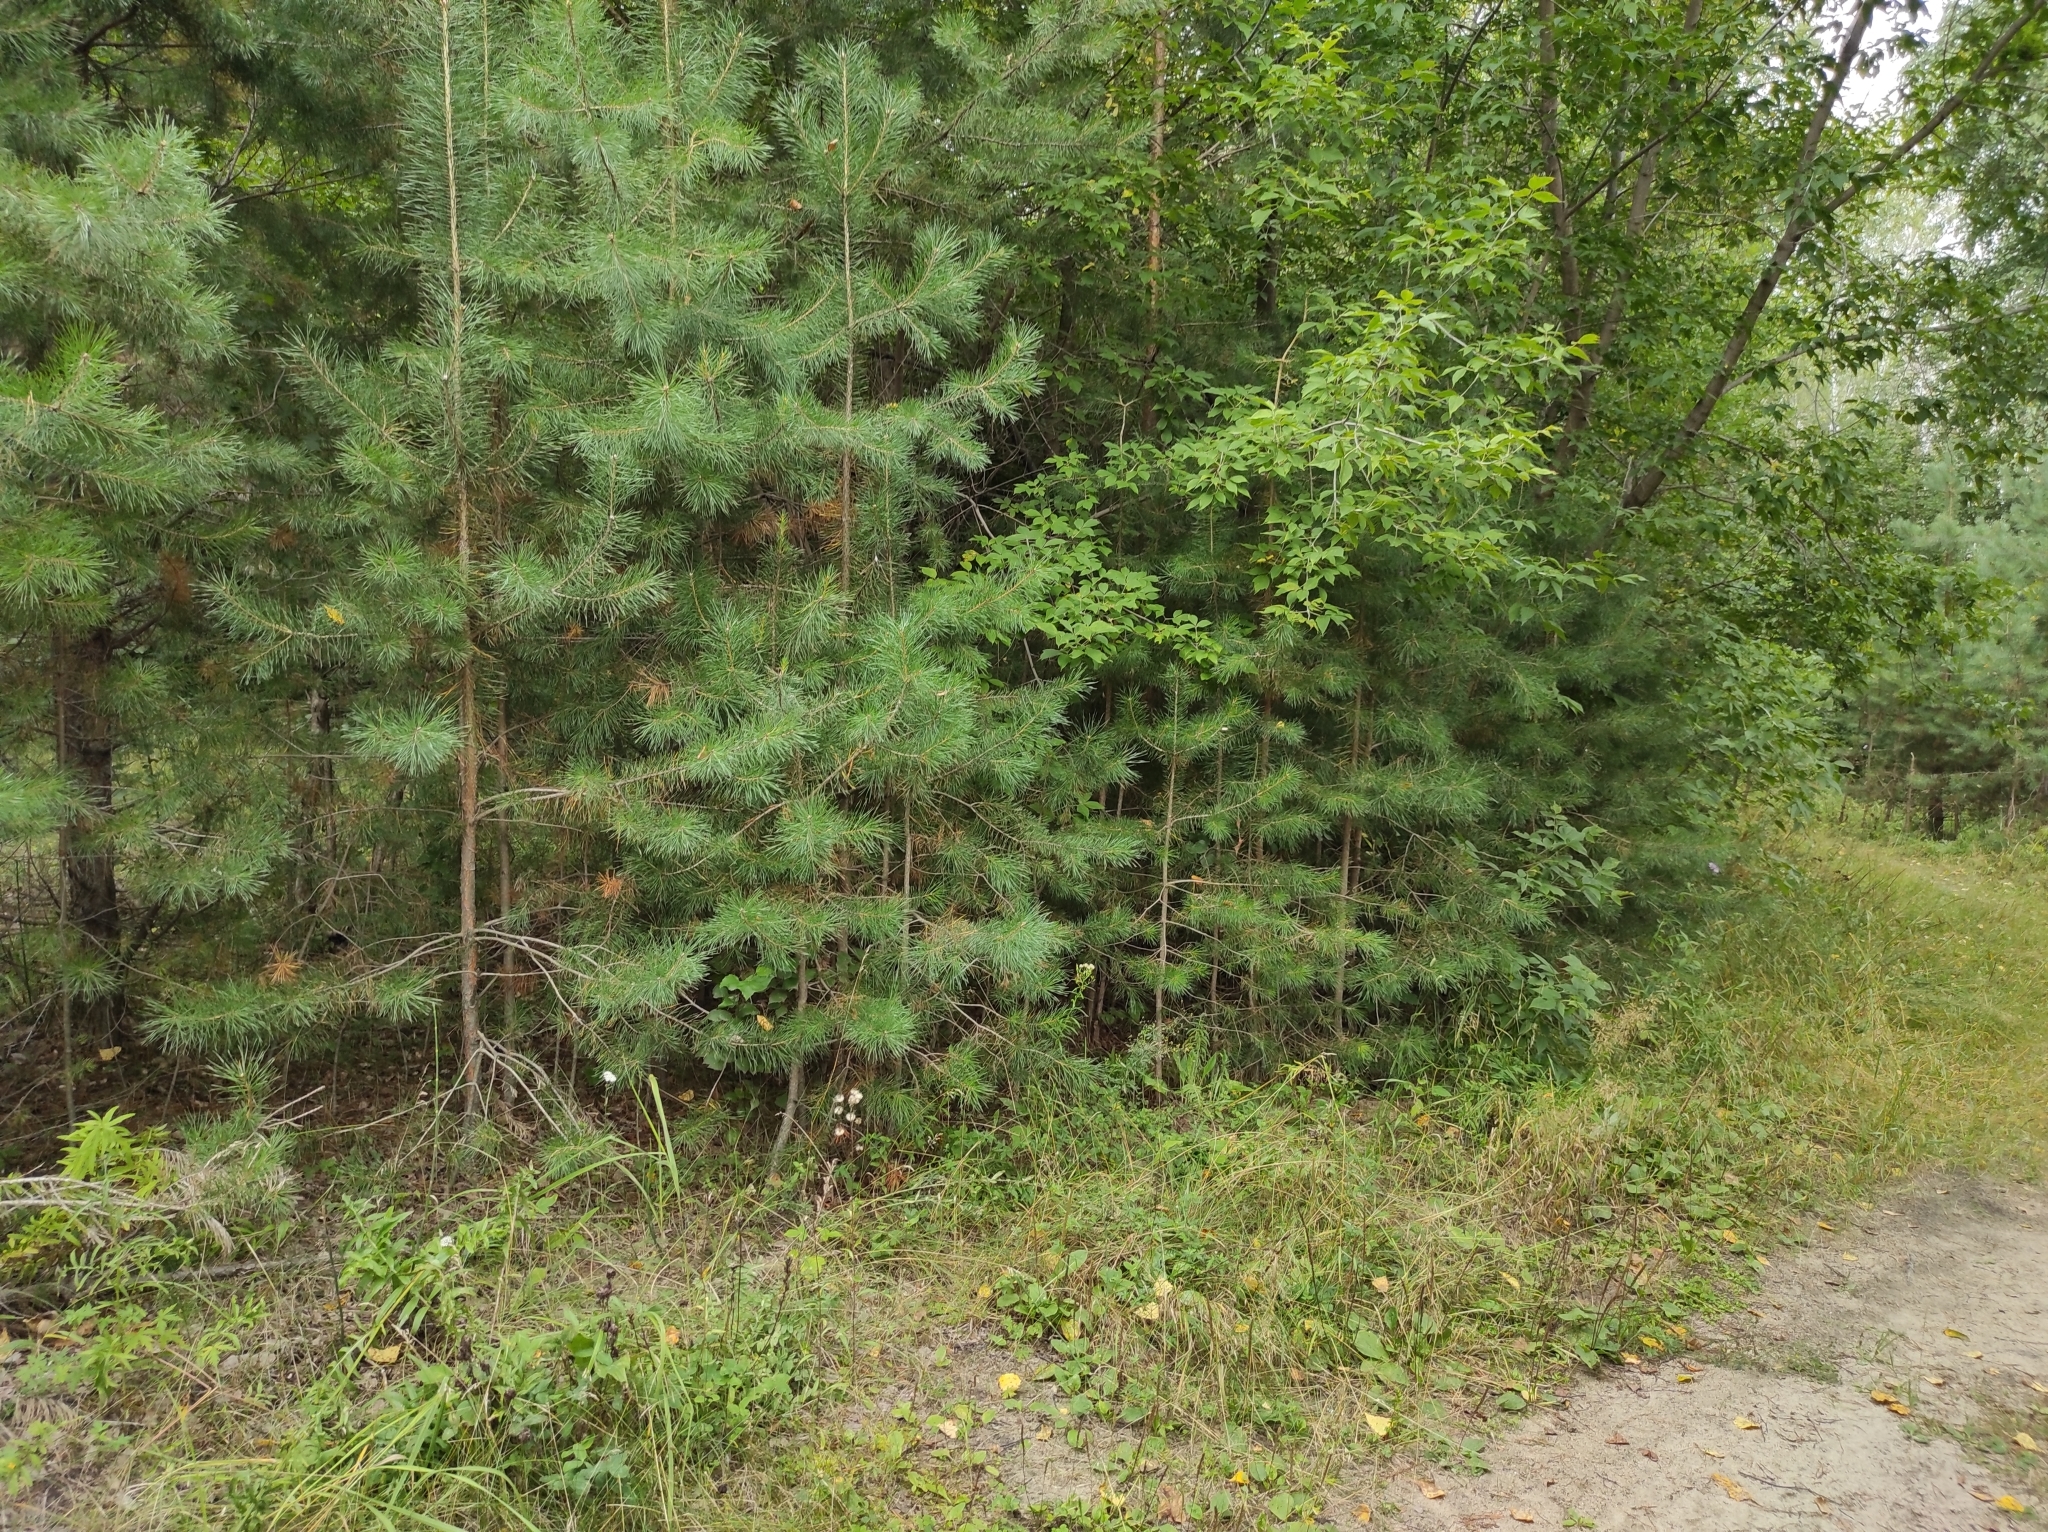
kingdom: Plantae
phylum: Tracheophyta
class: Pinopsida
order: Pinales
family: Pinaceae
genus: Pinus
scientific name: Pinus sylvestris
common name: Scots pine
